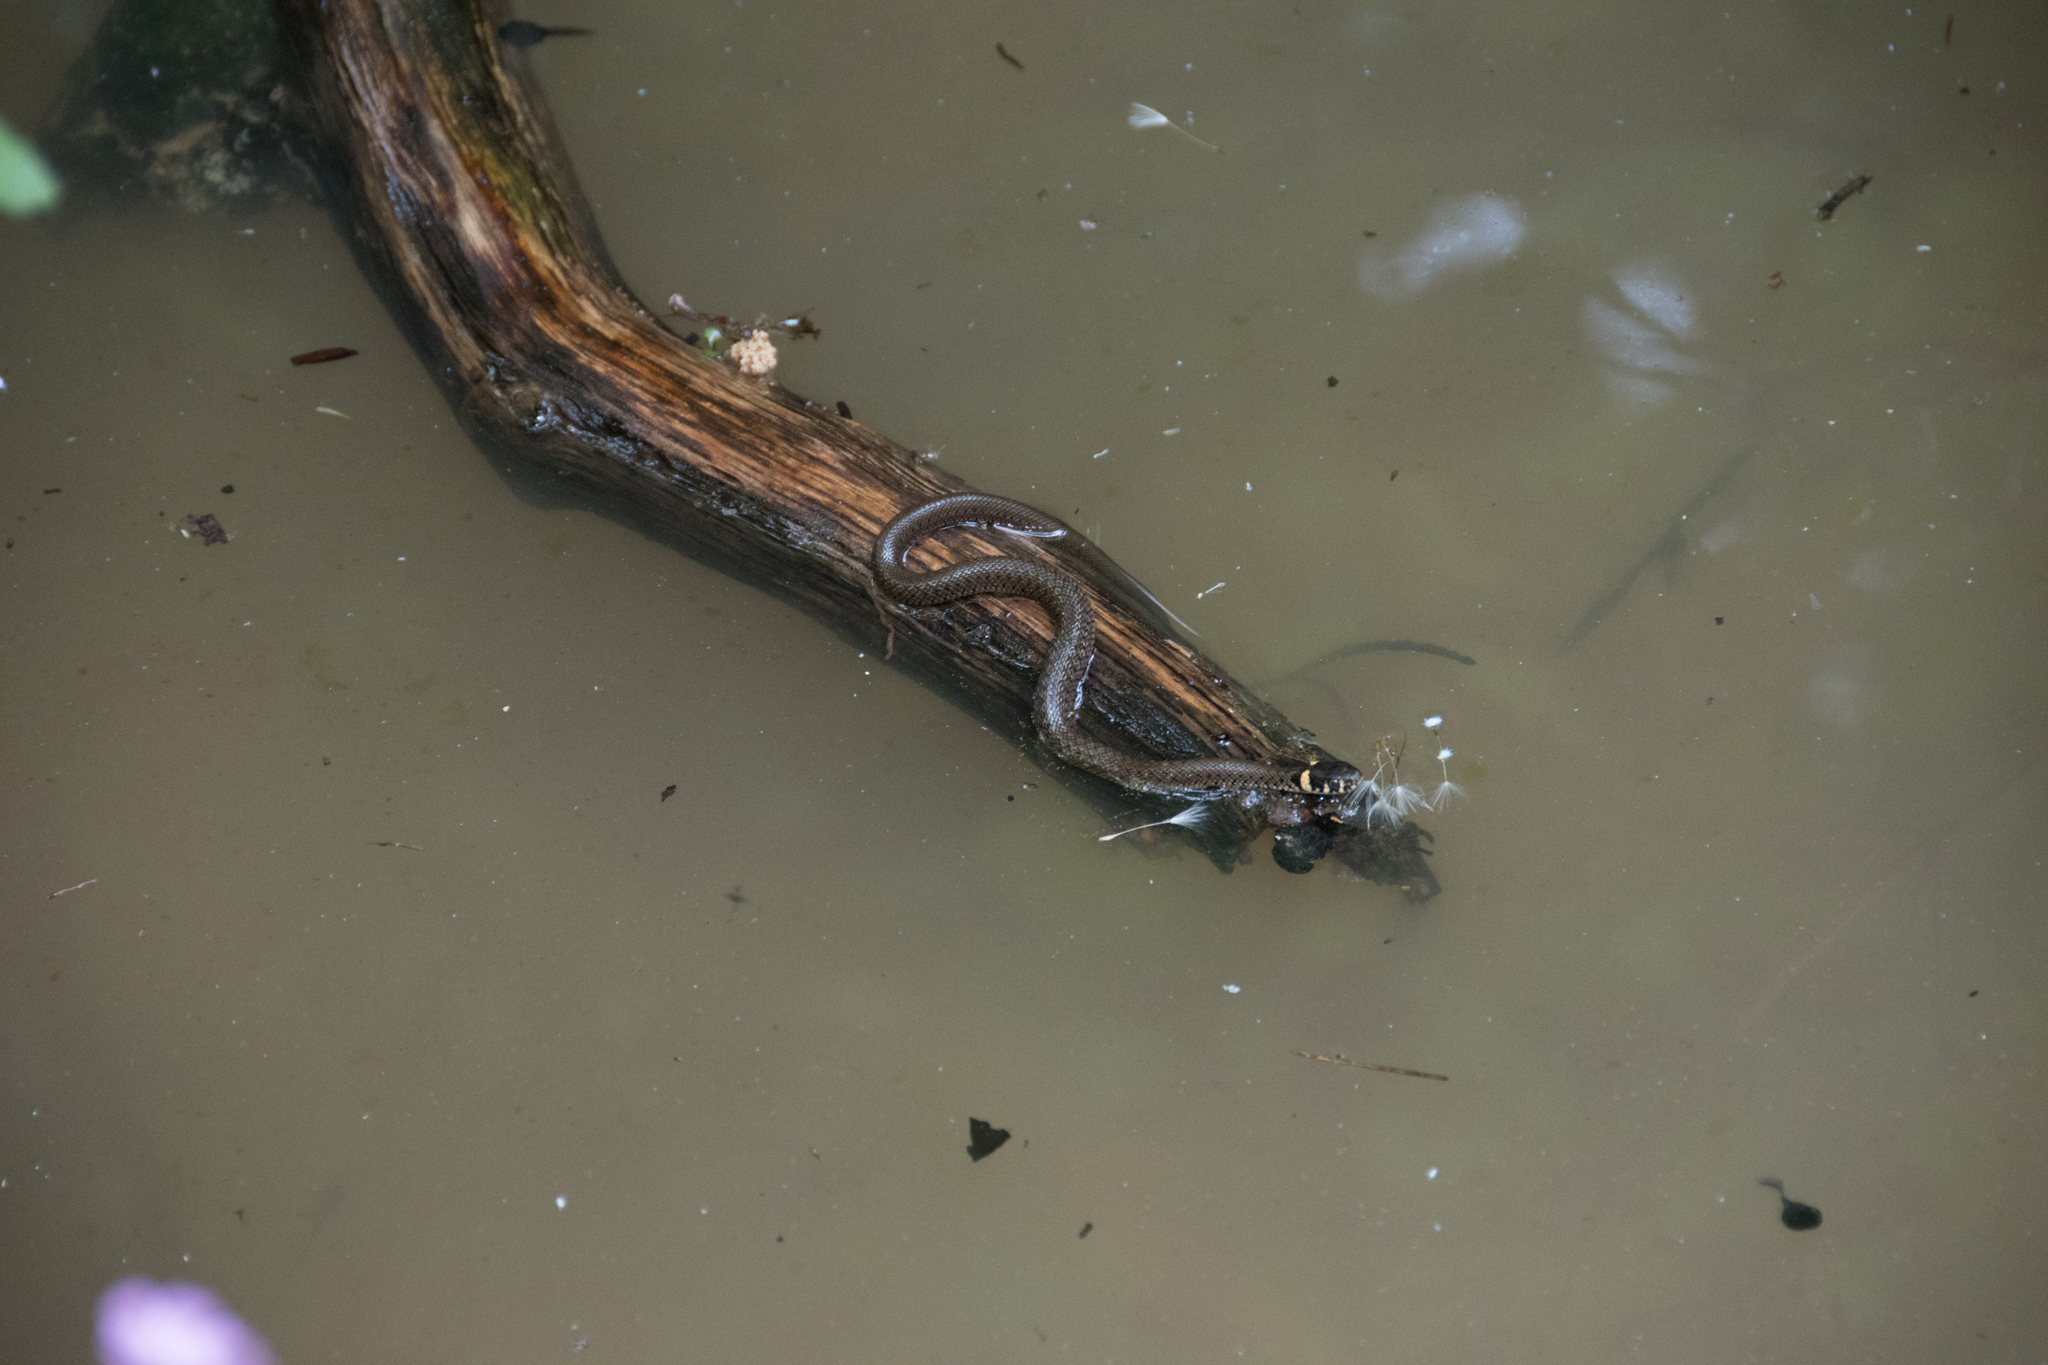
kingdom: Animalia
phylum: Chordata
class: Squamata
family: Colubridae
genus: Natrix
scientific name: Natrix natrix
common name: Grass snake
